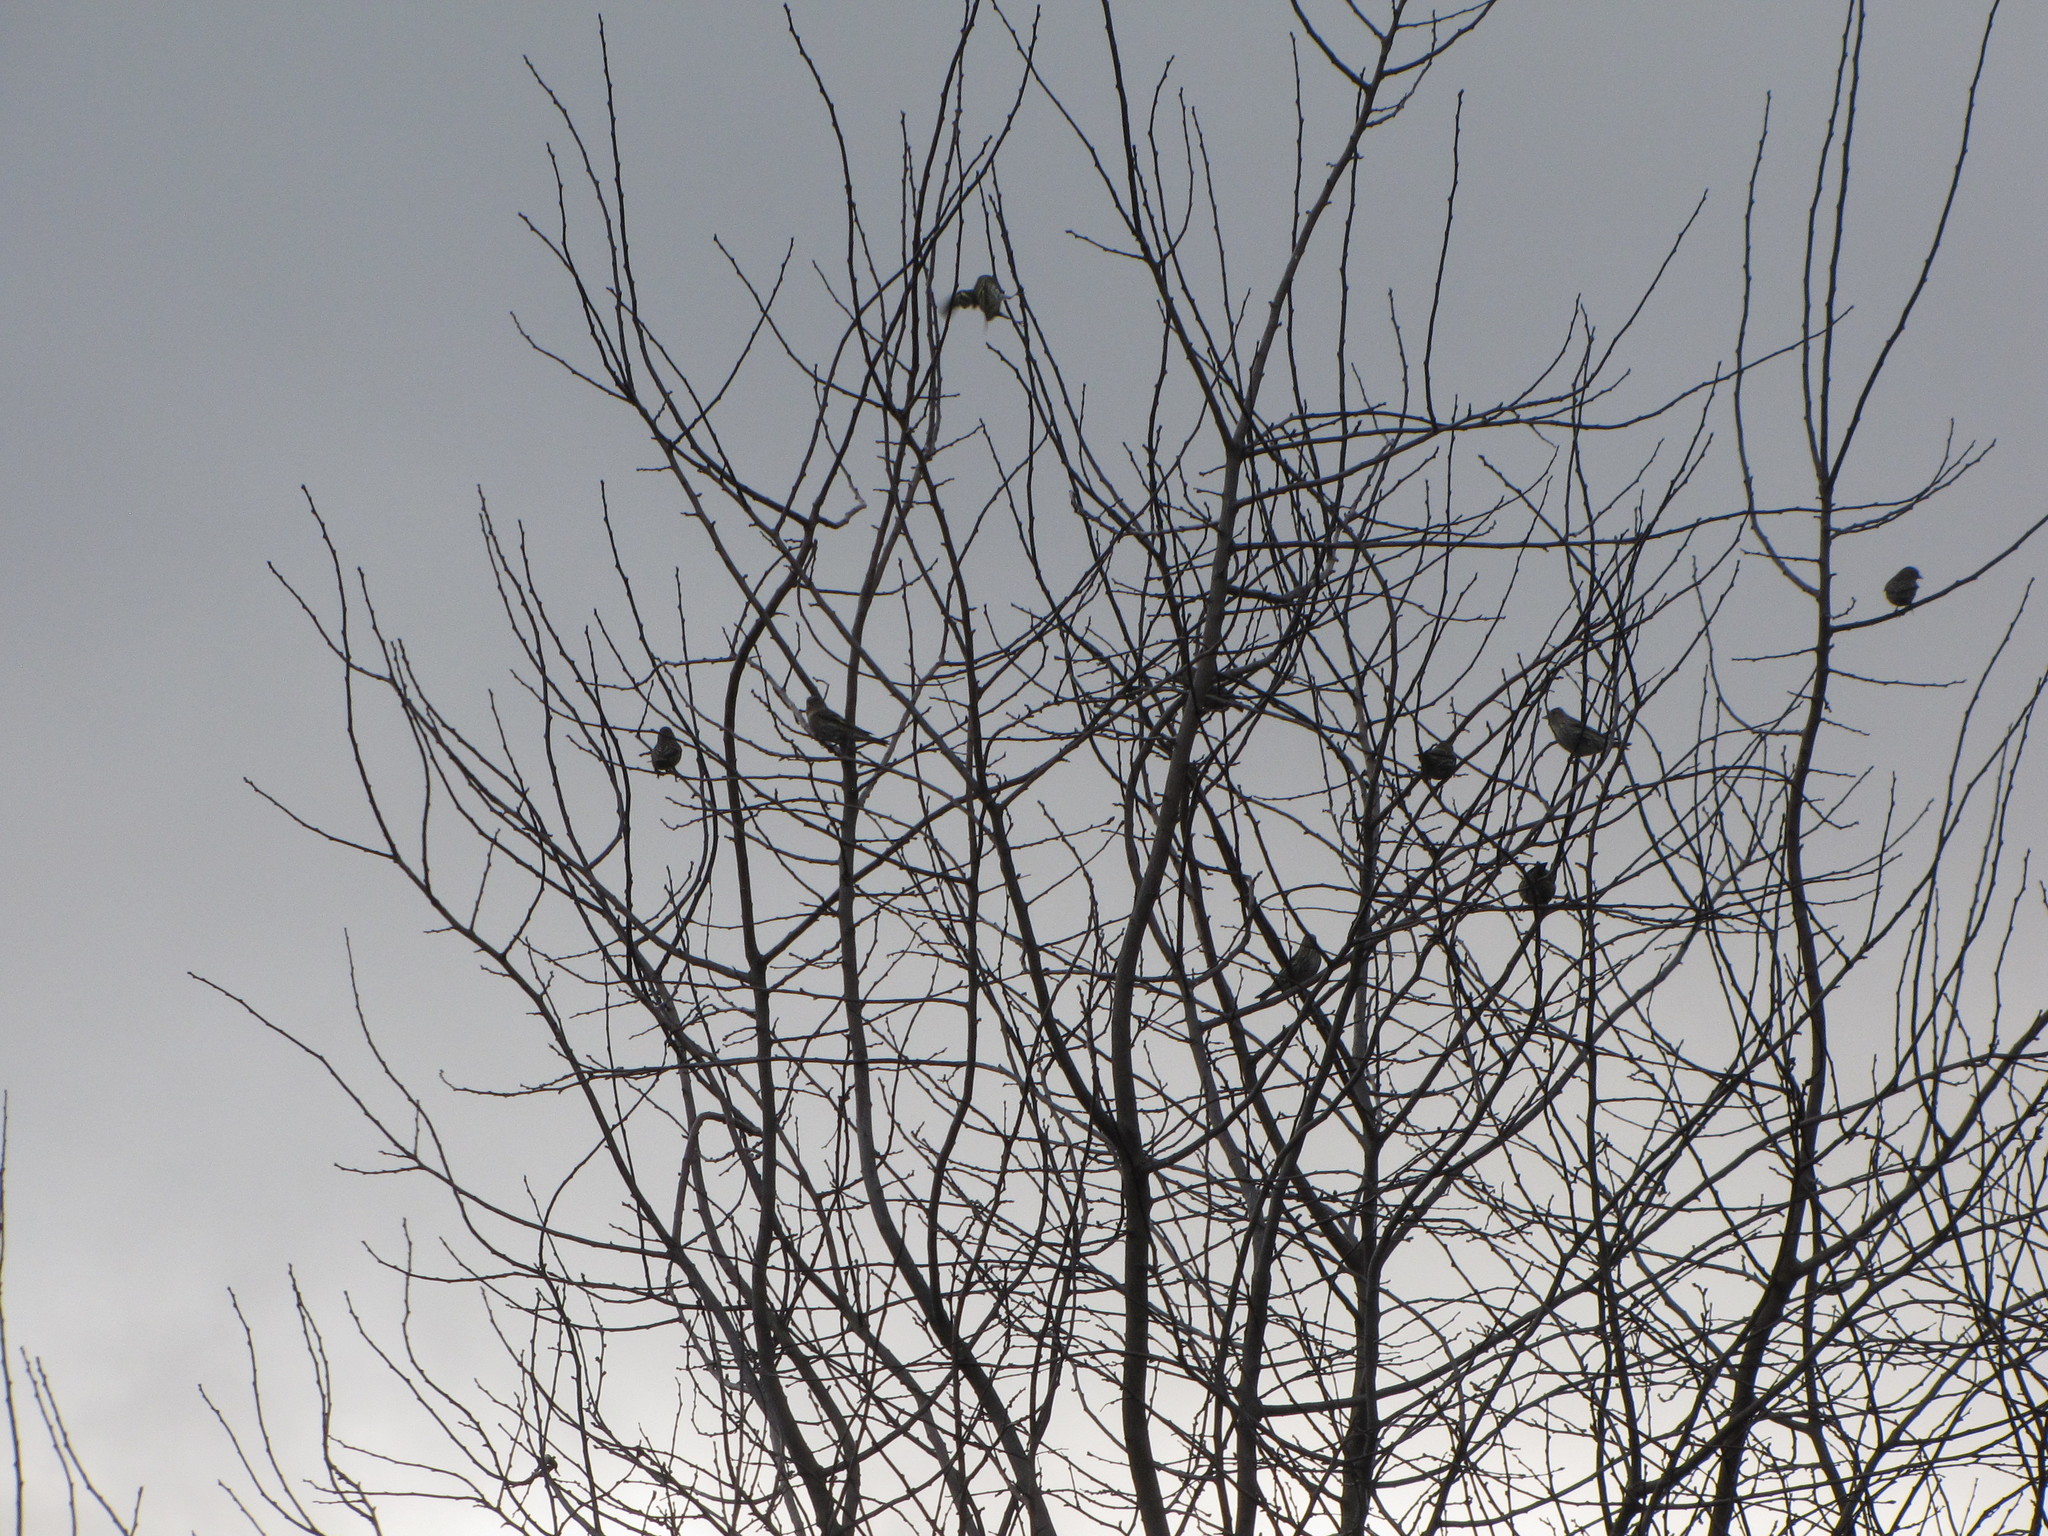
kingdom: Animalia
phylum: Chordata
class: Aves
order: Passeriformes
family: Fringillidae
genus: Spinus
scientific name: Spinus pinus
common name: Pine siskin
